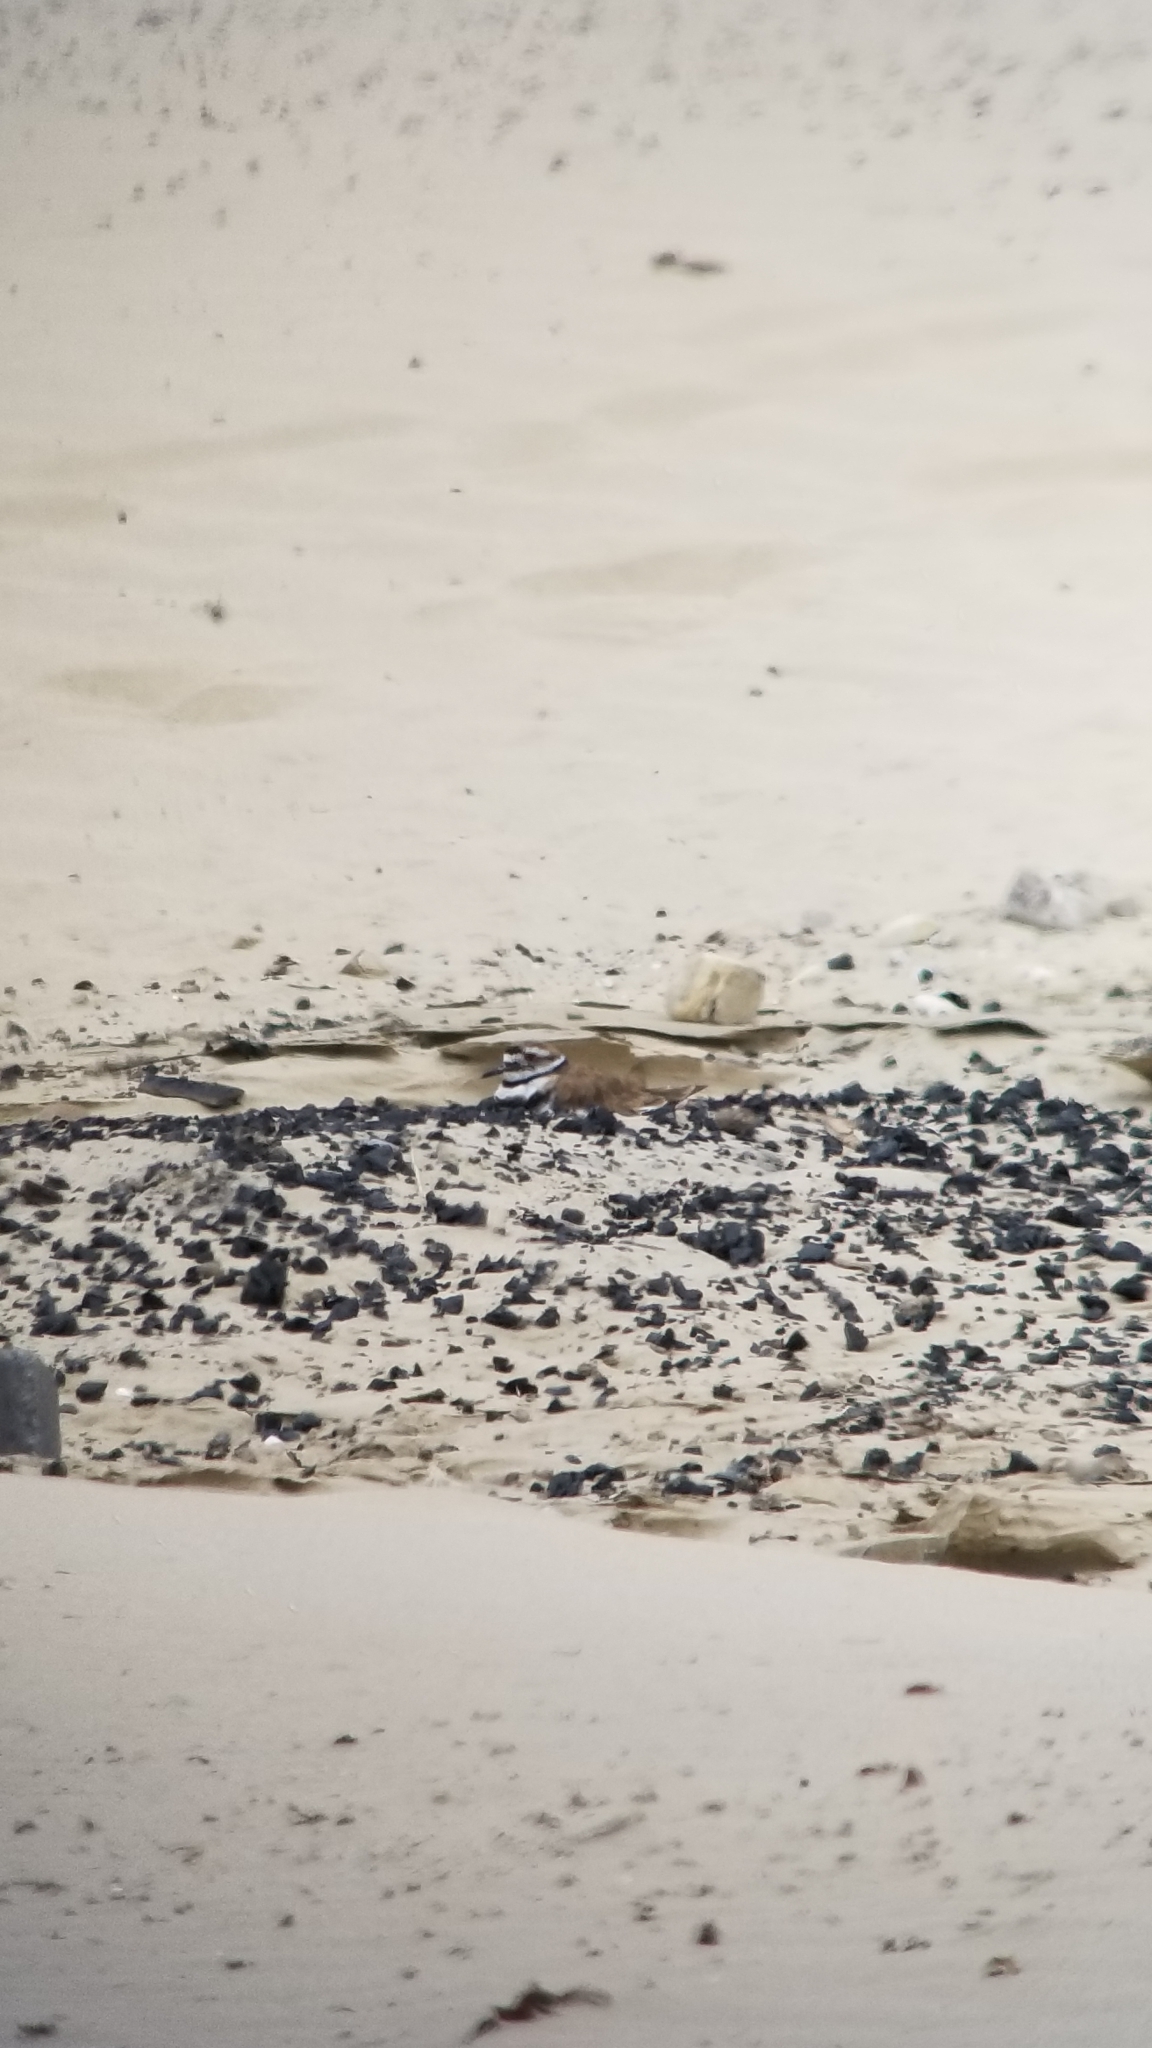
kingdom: Animalia
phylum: Chordata
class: Aves
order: Charadriiformes
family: Charadriidae
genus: Charadrius
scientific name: Charadrius vociferus
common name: Killdeer
